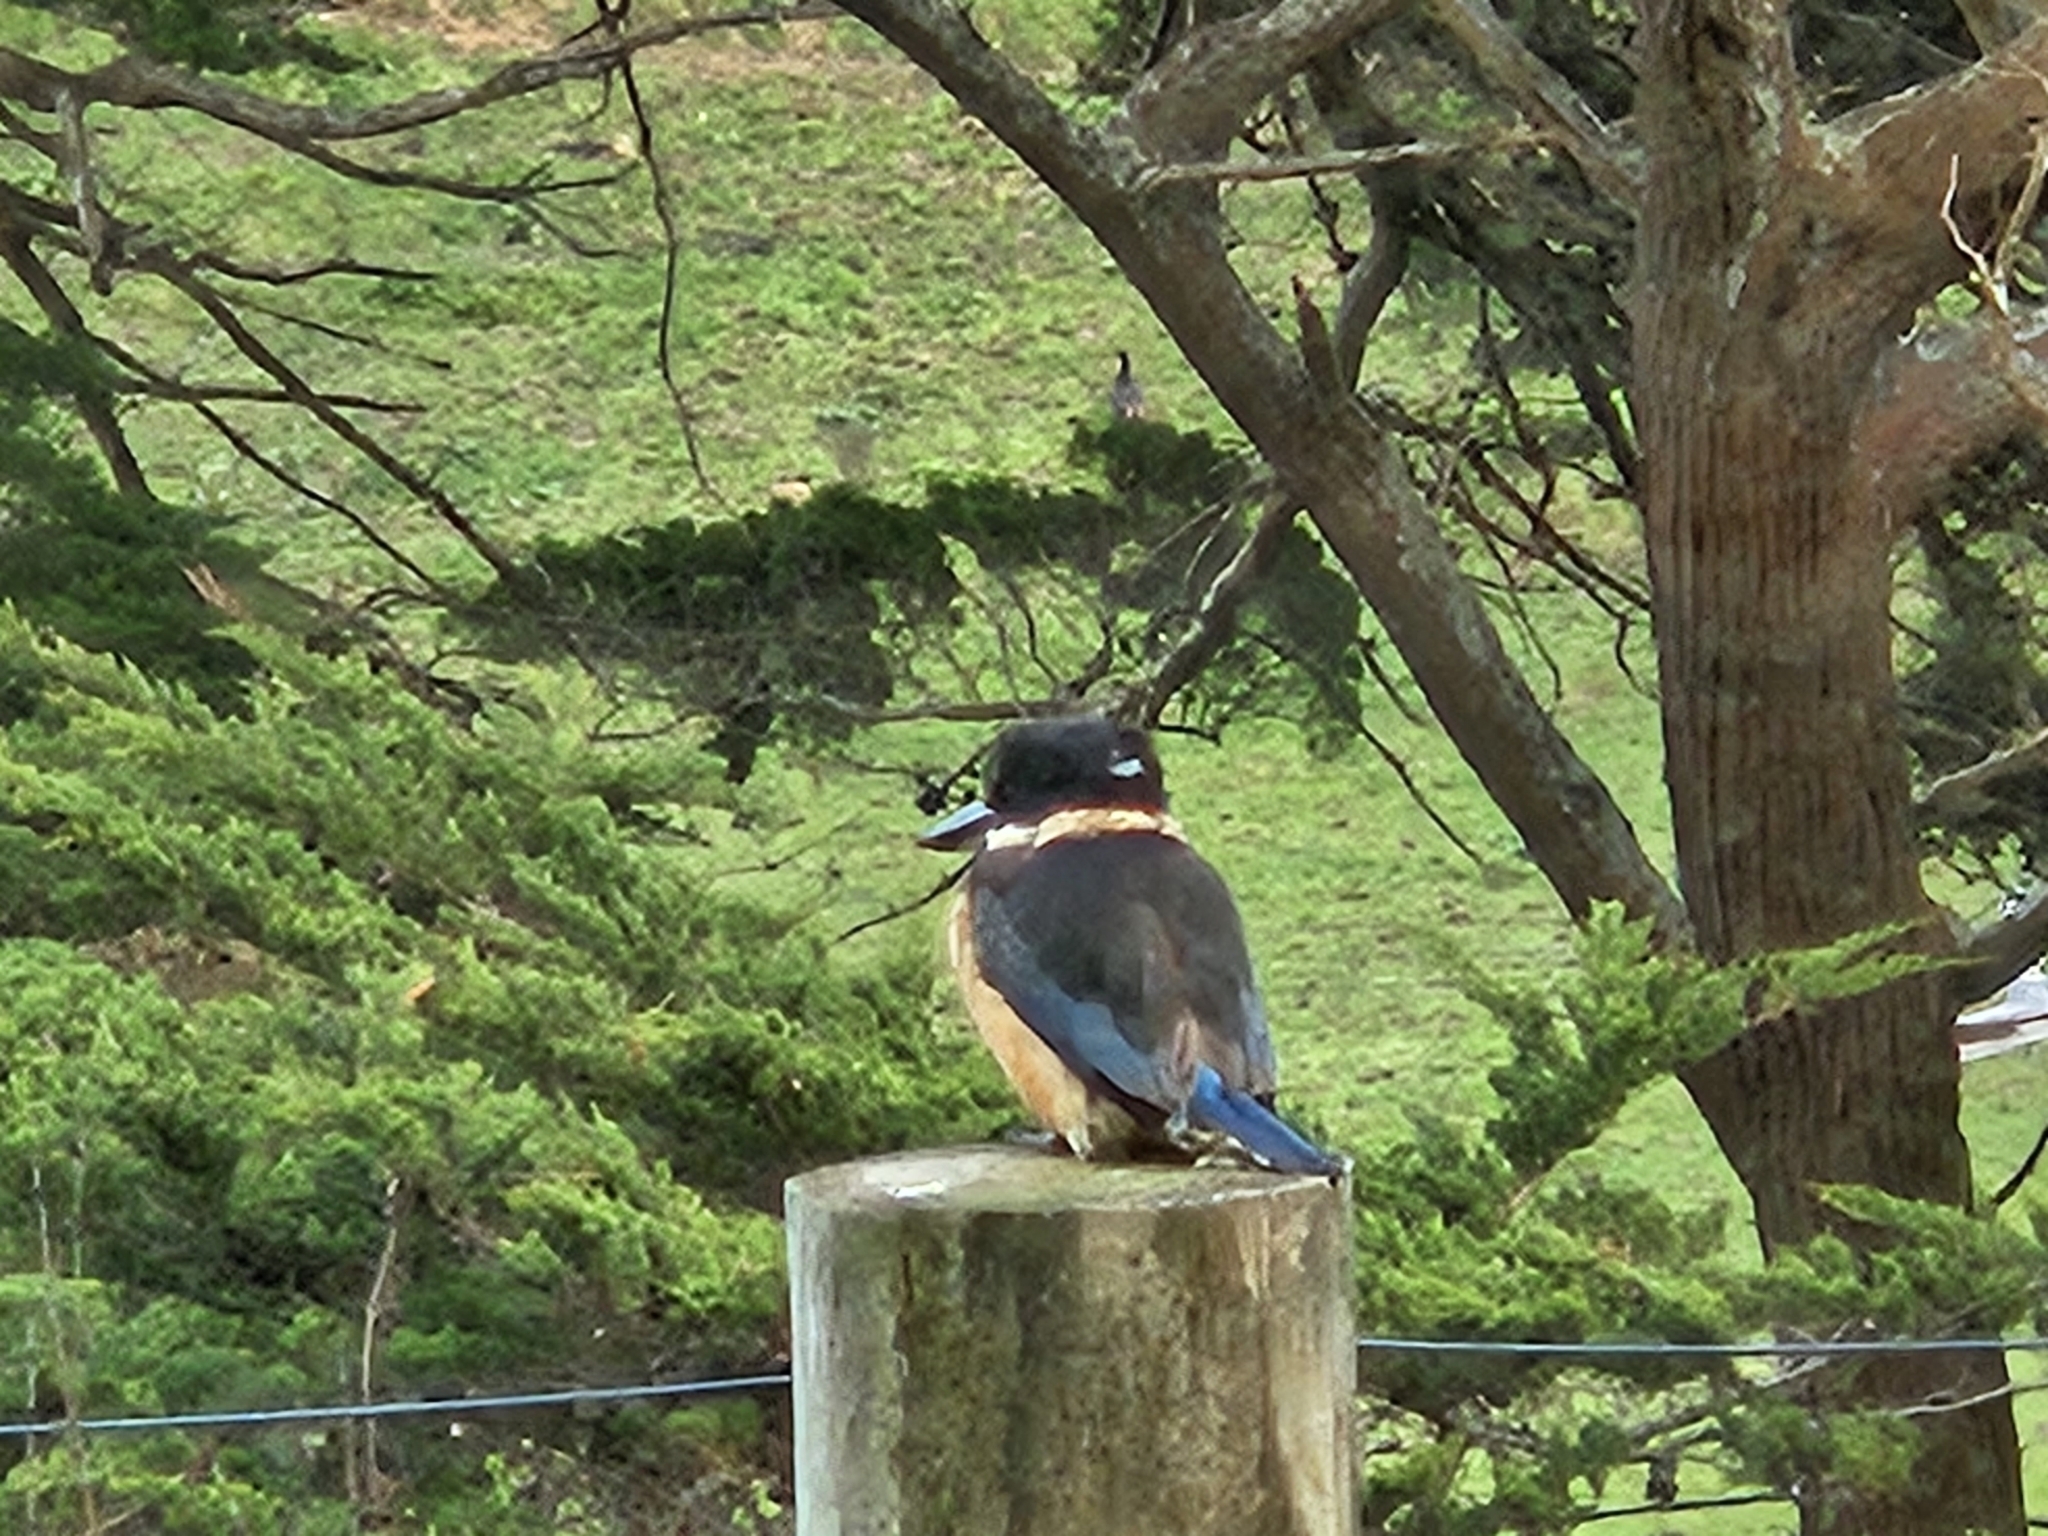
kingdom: Animalia
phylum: Chordata
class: Aves
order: Coraciiformes
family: Alcedinidae
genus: Todiramphus
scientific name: Todiramphus sanctus
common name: Sacred kingfisher
